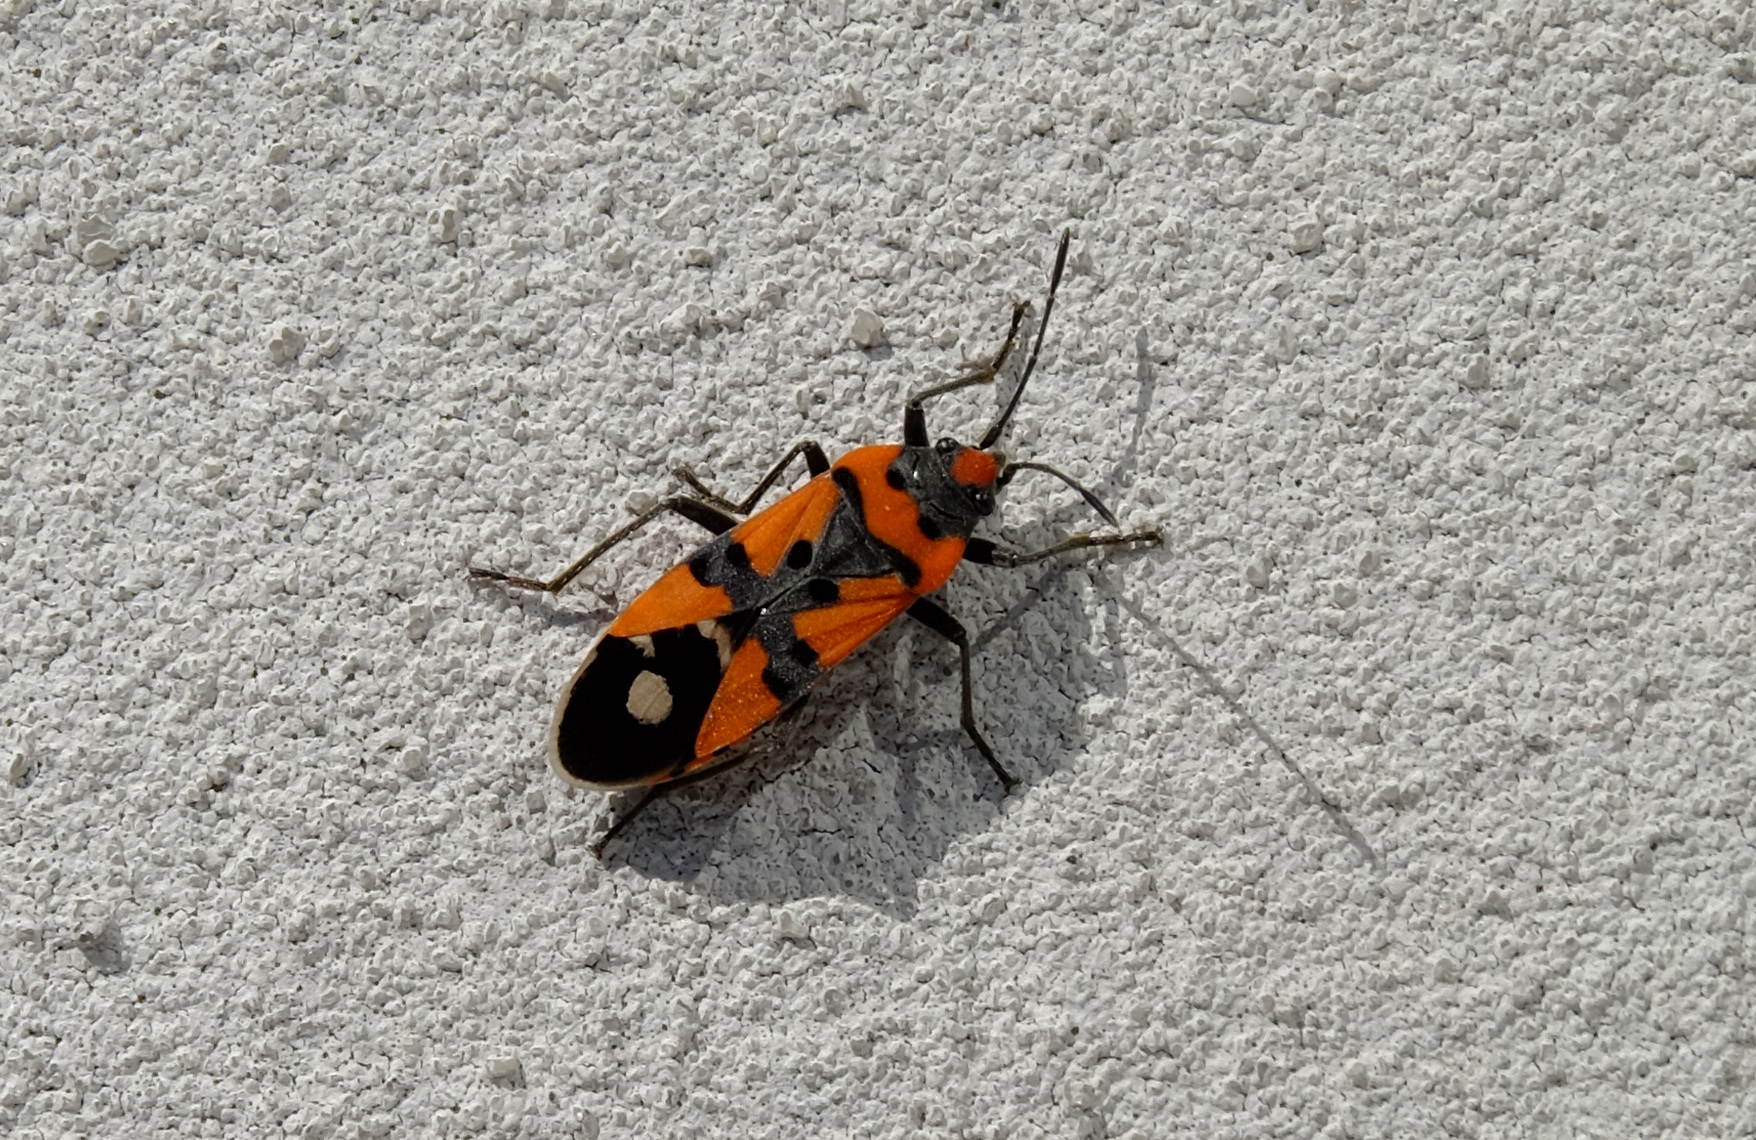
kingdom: Animalia
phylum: Arthropoda
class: Insecta
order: Hemiptera
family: Lygaeidae
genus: Lygaeus
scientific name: Lygaeus equestris
